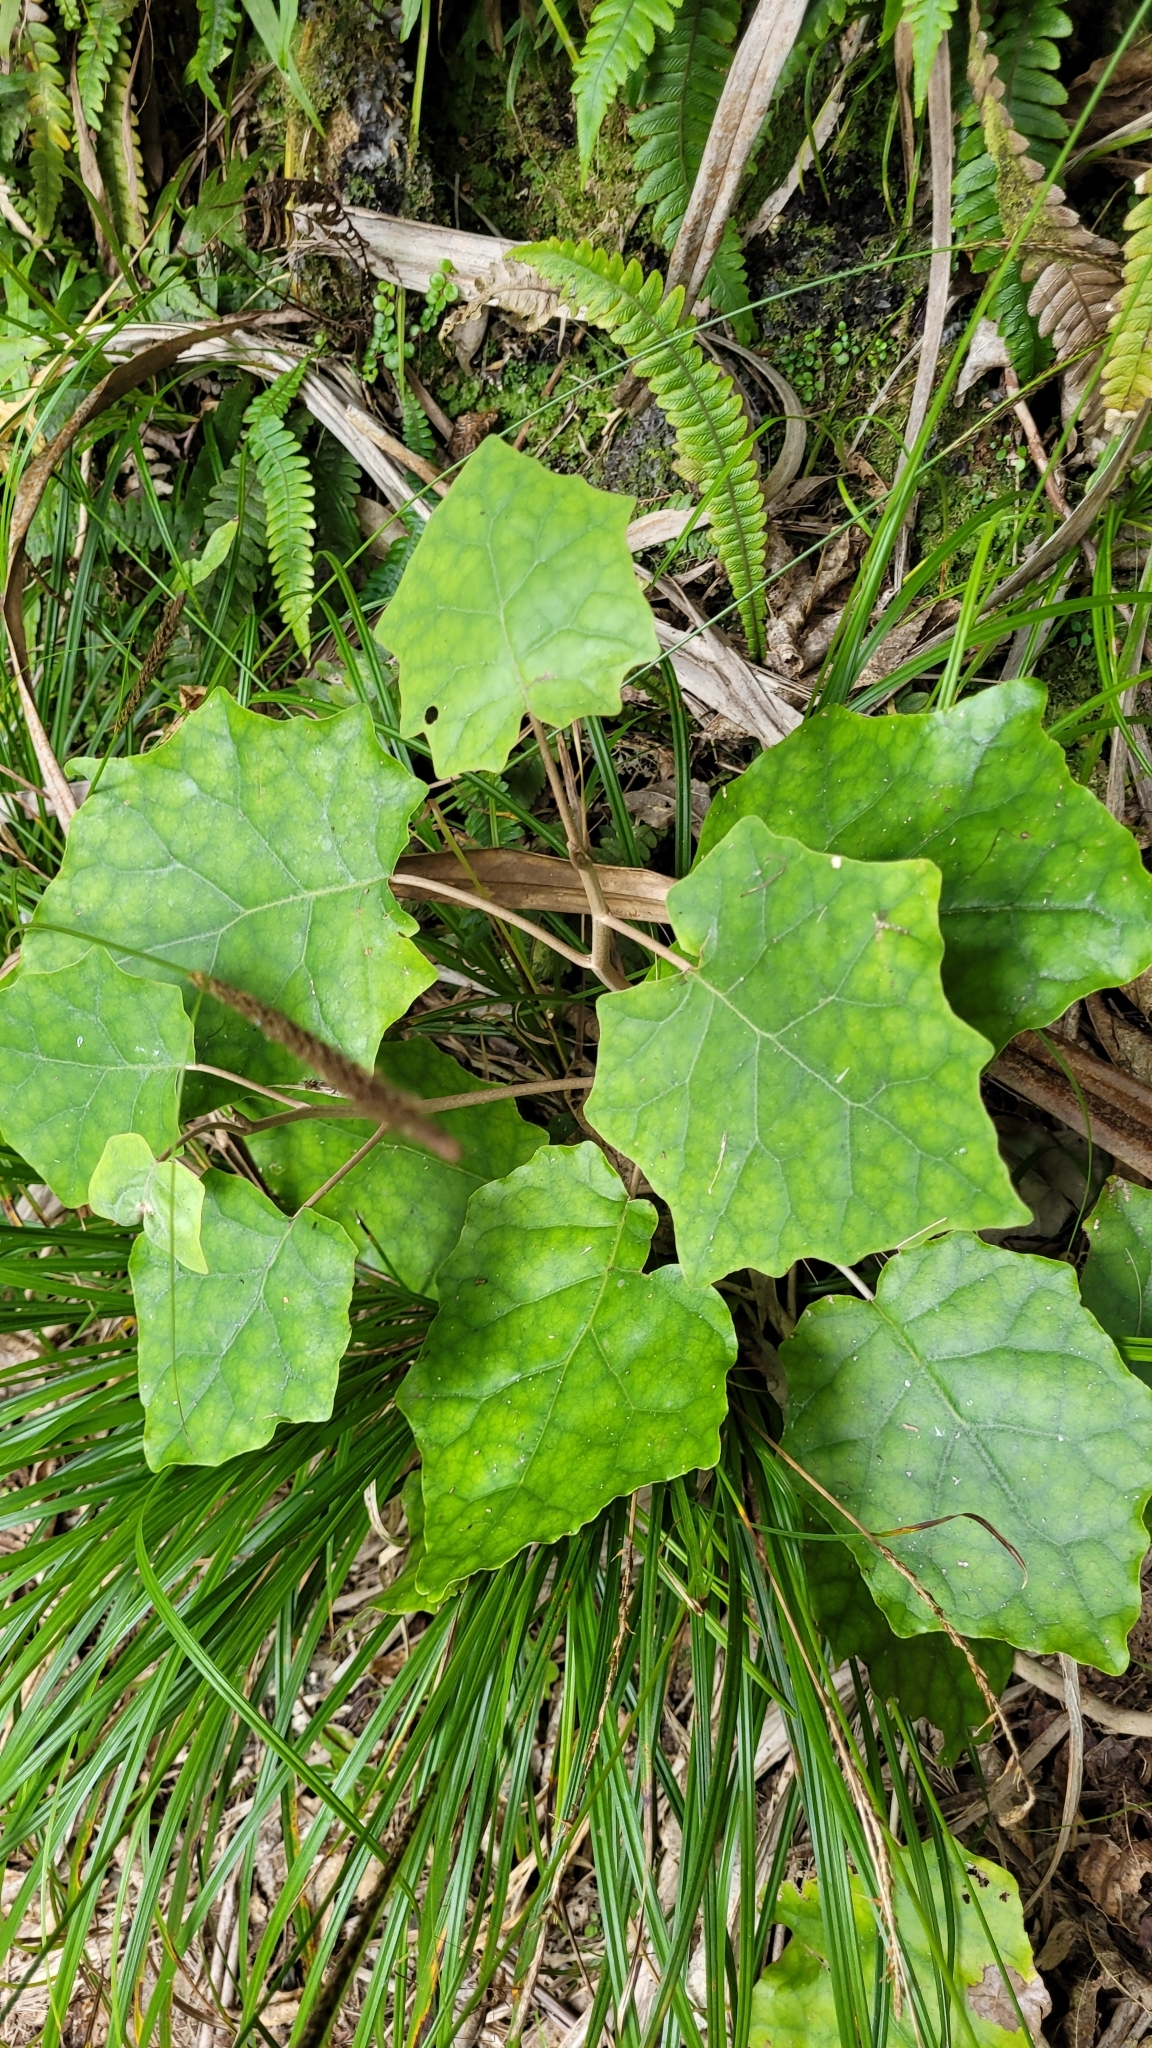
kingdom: Plantae
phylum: Tracheophyta
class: Magnoliopsida
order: Asterales
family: Asteraceae
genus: Brachyglottis
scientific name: Brachyglottis repanda
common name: Hedge ragwort
